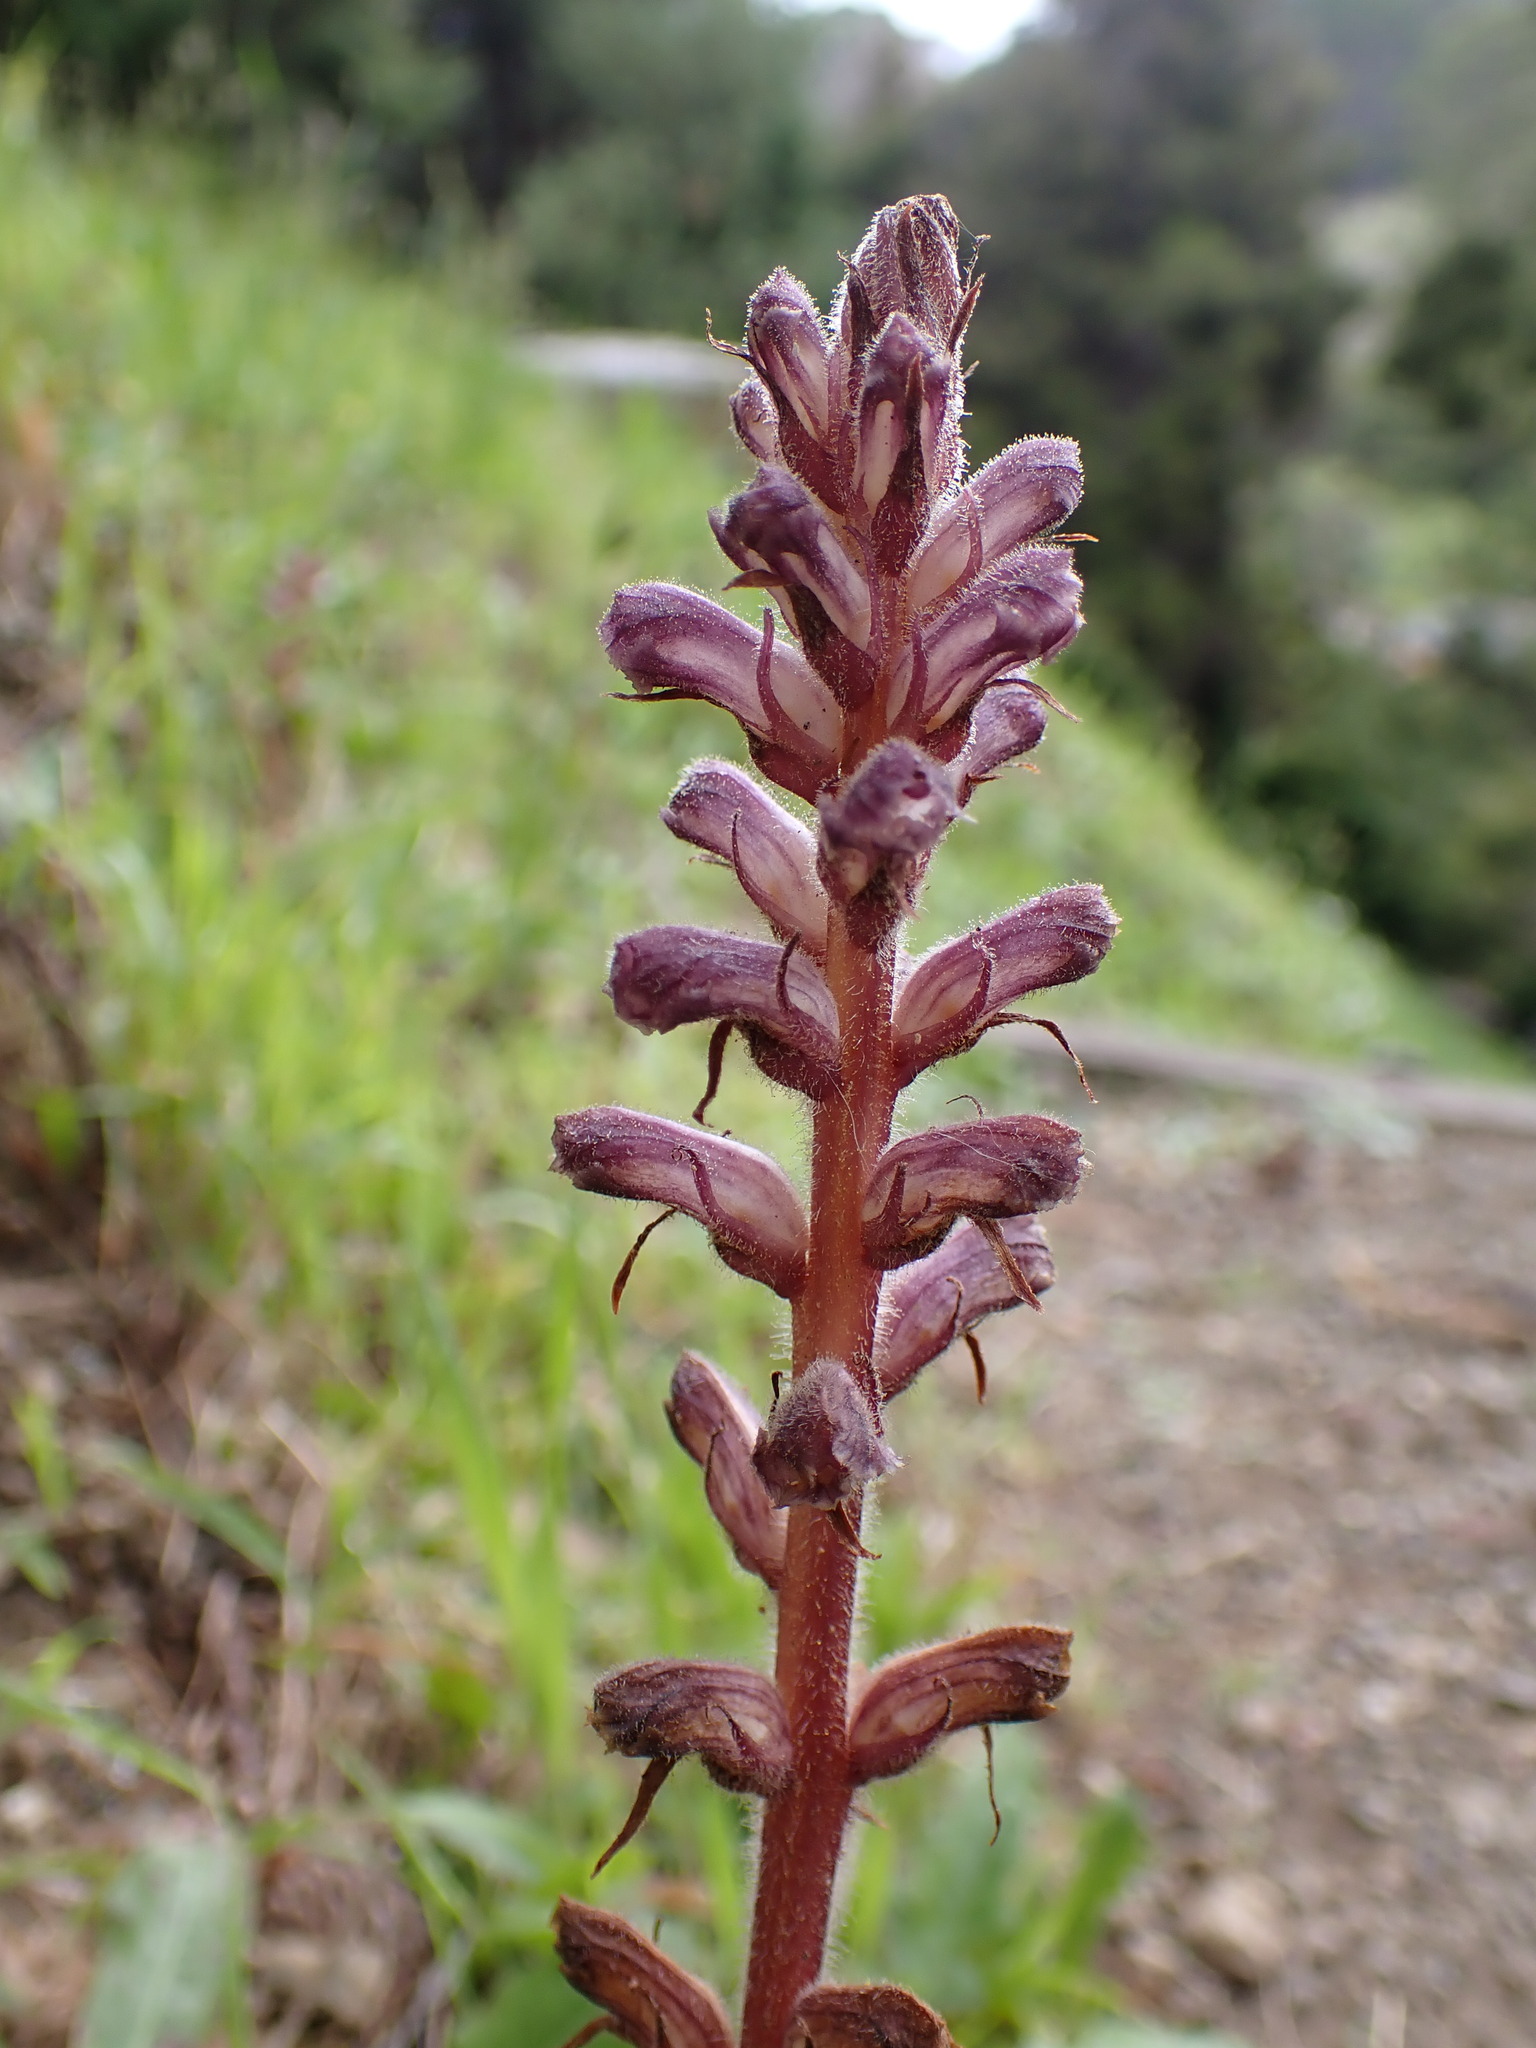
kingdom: Plantae
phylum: Tracheophyta
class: Magnoliopsida
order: Lamiales
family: Orobanchaceae
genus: Orobanche
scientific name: Orobanche minor
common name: Common broomrape
